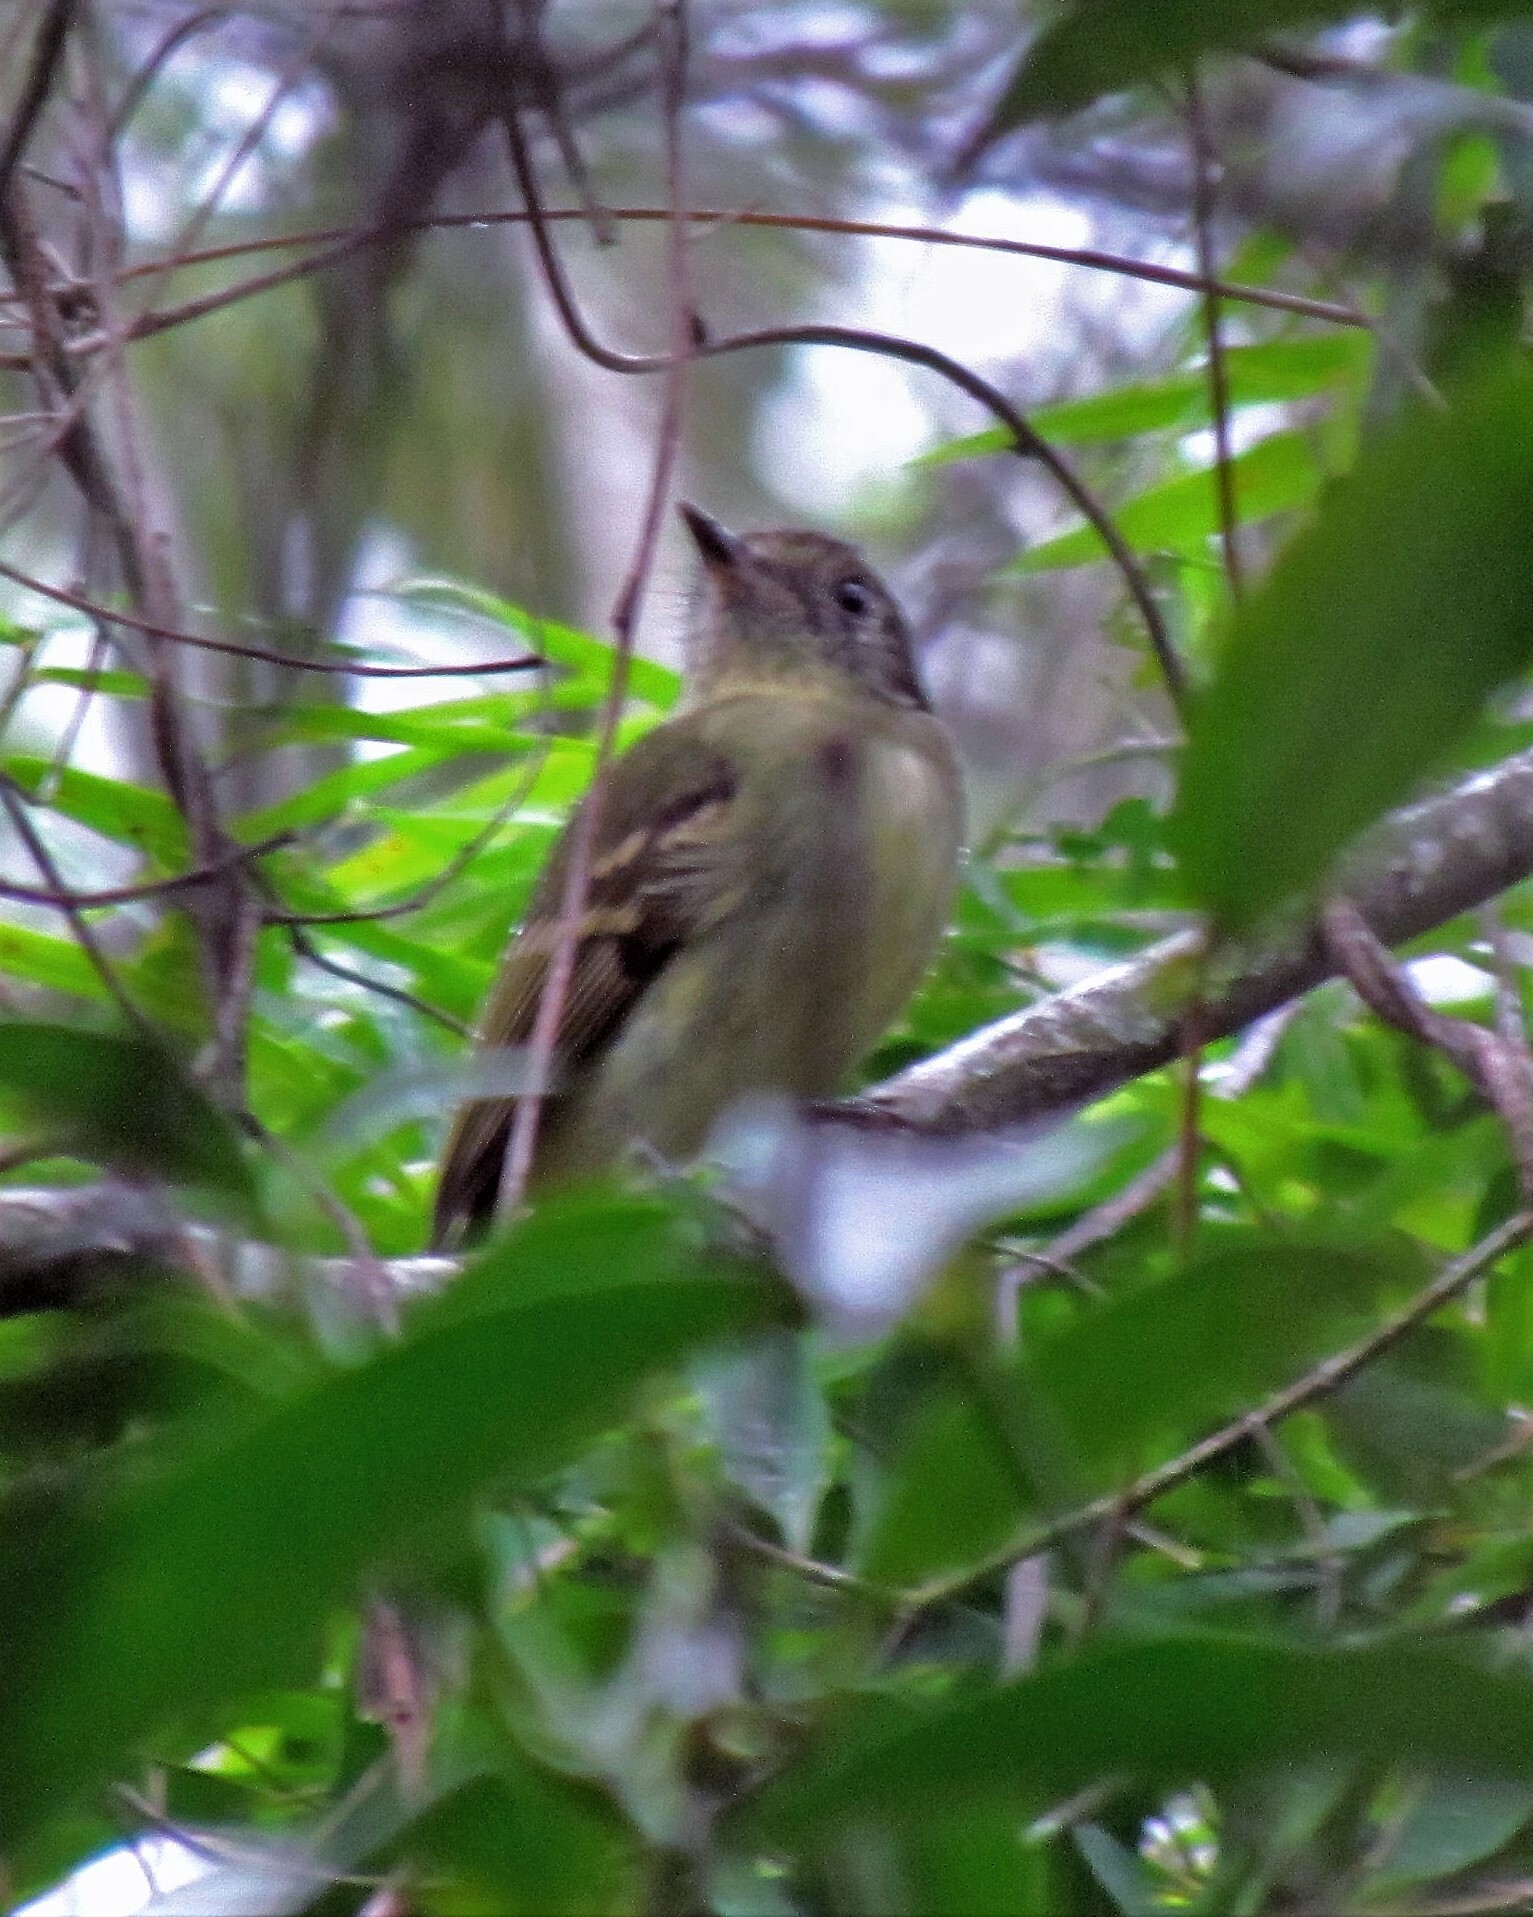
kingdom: Animalia
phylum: Chordata
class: Aves
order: Passeriformes
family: Tyrannidae
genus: Leptopogon
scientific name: Leptopogon amaurocephalus
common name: Sepia-capped flycatcher
